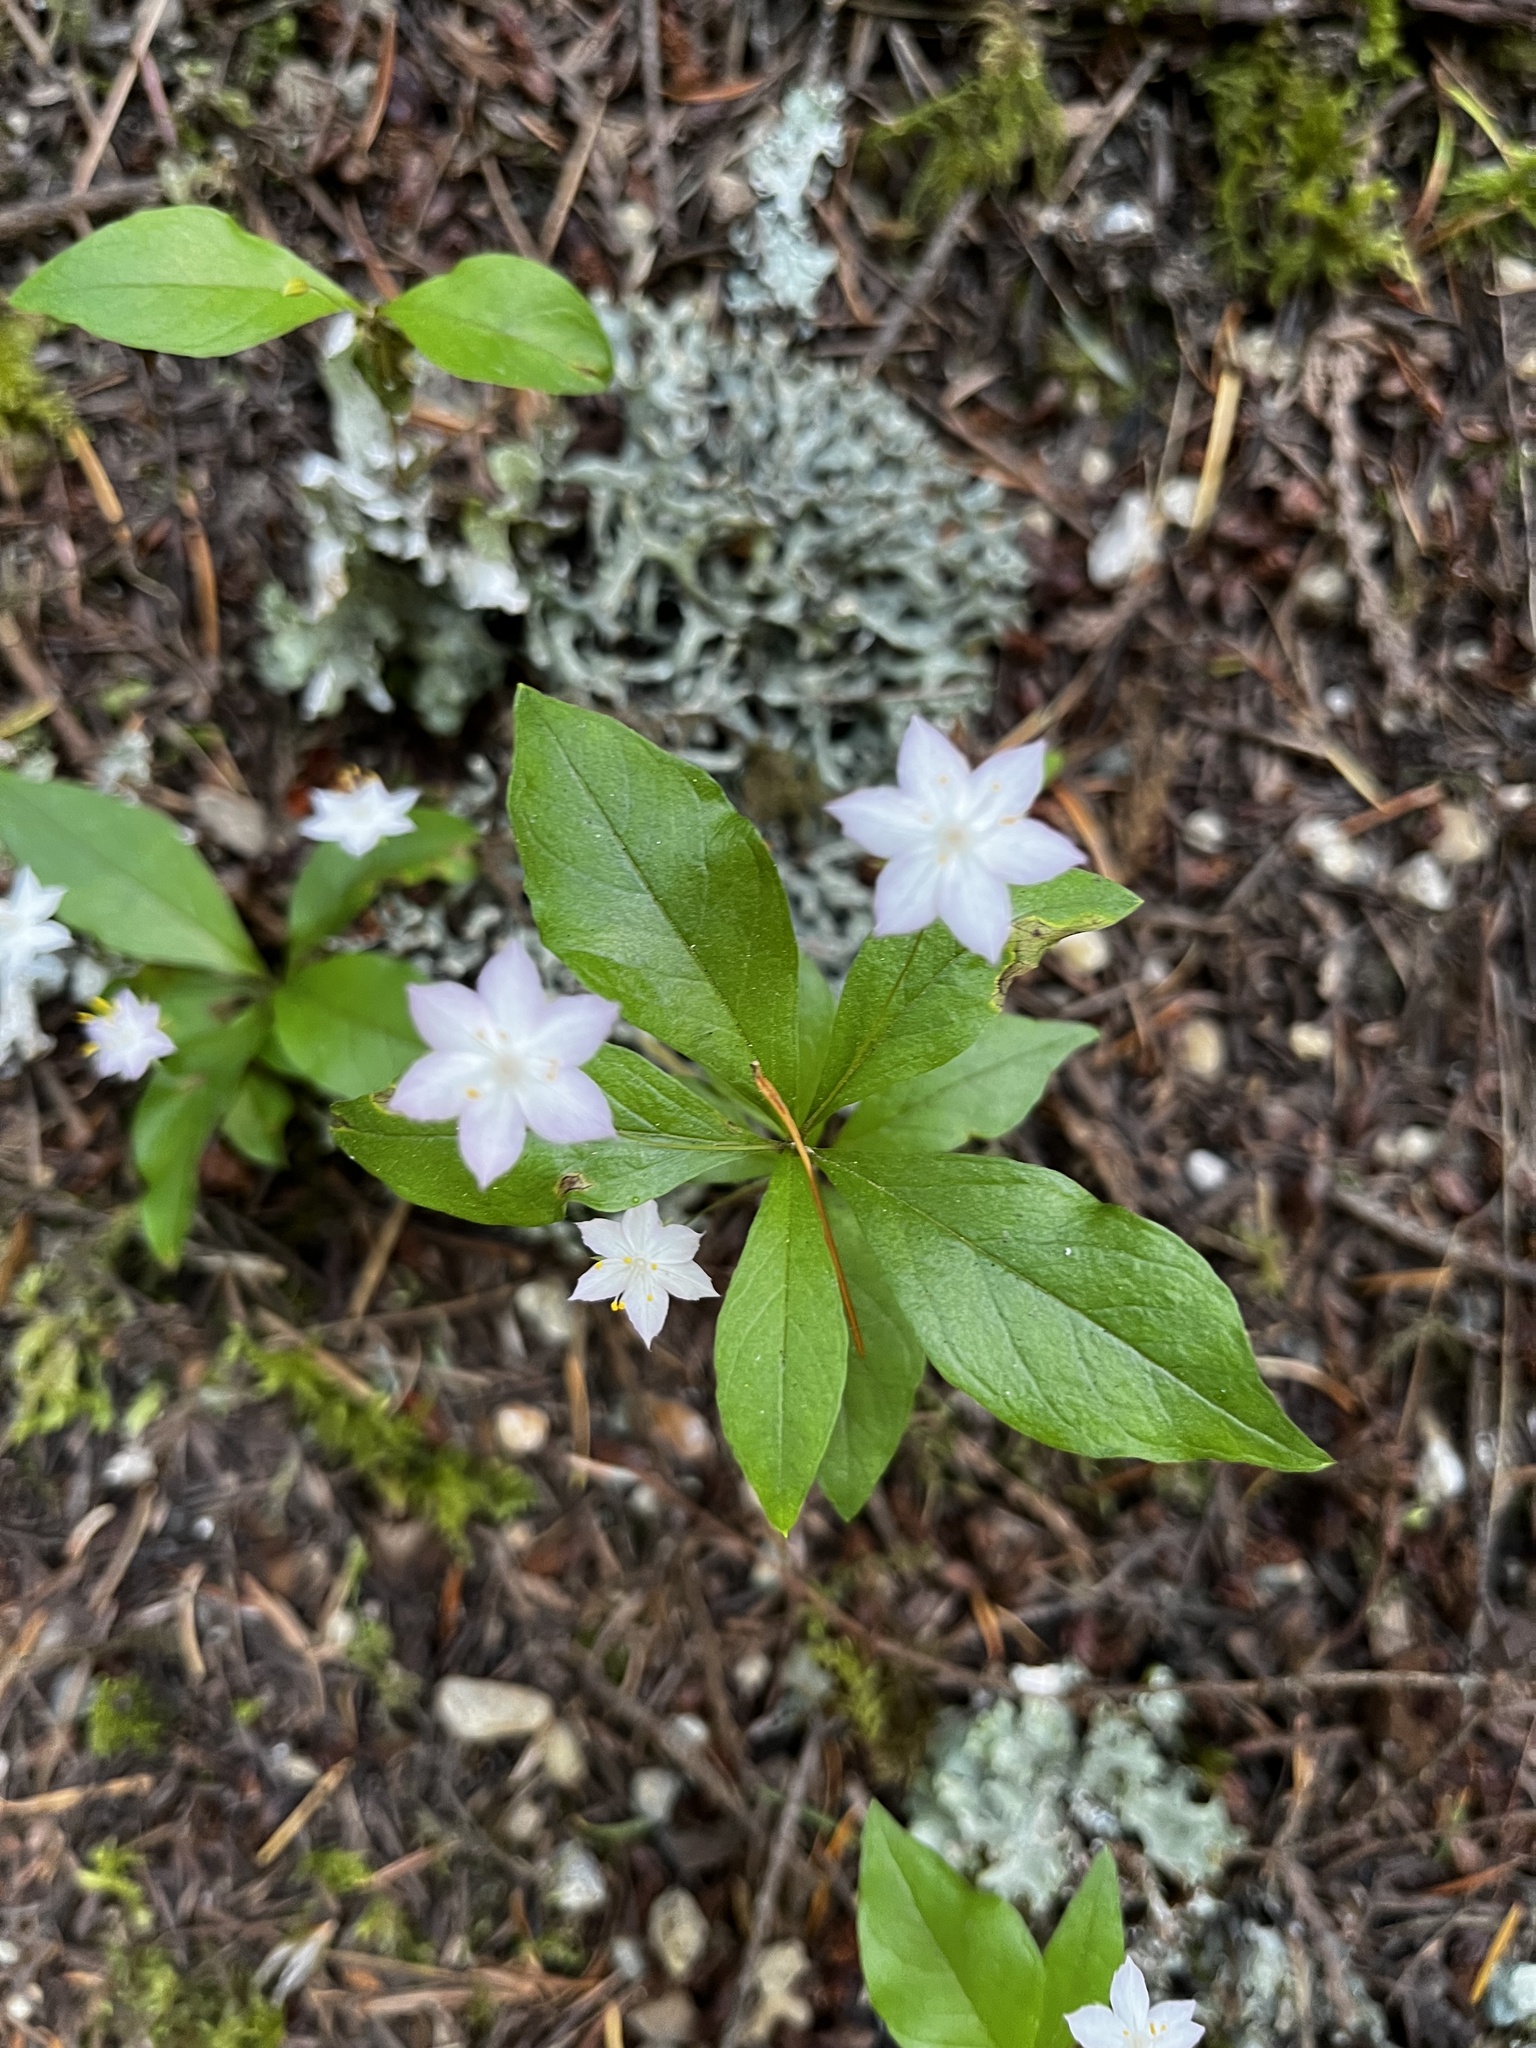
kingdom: Plantae
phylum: Tracheophyta
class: Magnoliopsida
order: Ericales
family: Primulaceae
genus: Lysimachia
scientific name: Lysimachia latifolia
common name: Pacific starflower
